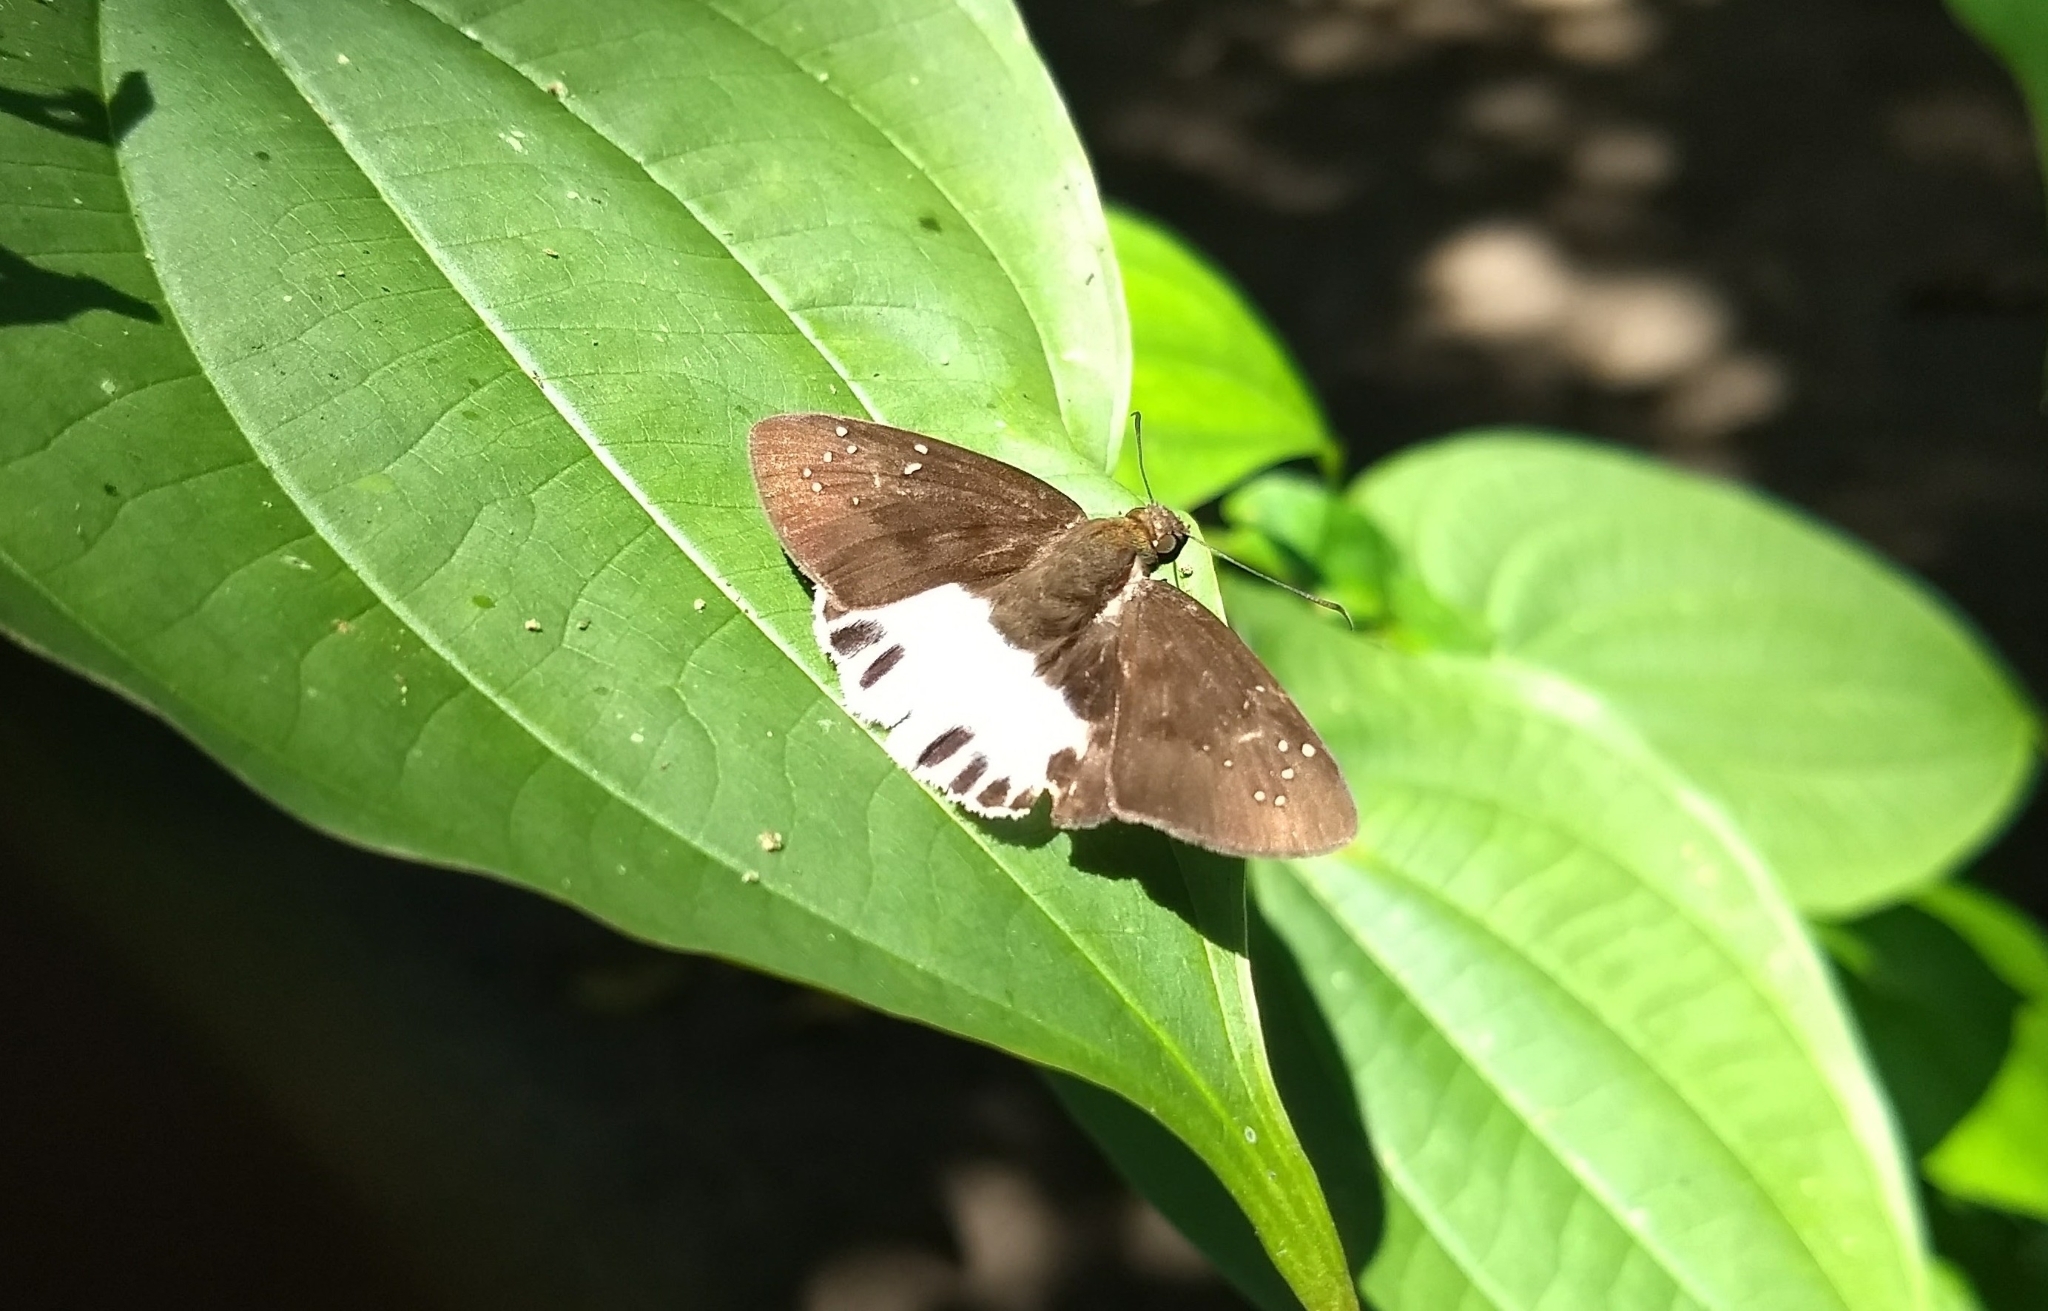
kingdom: Animalia
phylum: Arthropoda
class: Insecta
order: Lepidoptera
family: Hesperiidae
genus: Tagiades
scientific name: Tagiades litigiosa
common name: Water snow flat
